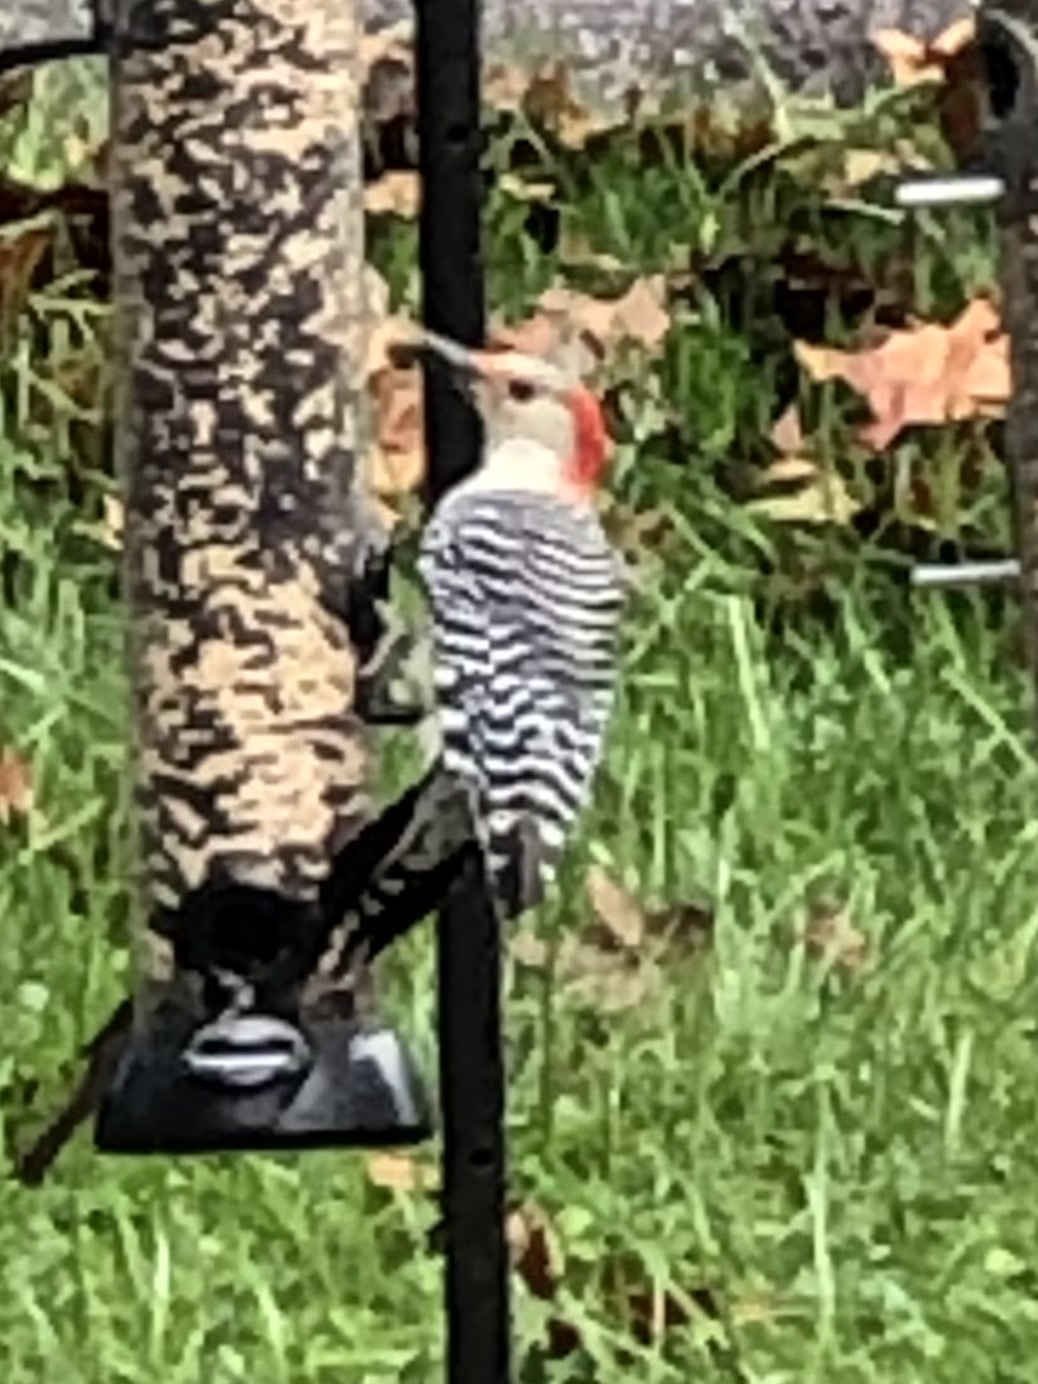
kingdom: Animalia
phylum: Chordata
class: Aves
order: Piciformes
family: Picidae
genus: Melanerpes
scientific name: Melanerpes carolinus
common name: Red-bellied woodpecker
